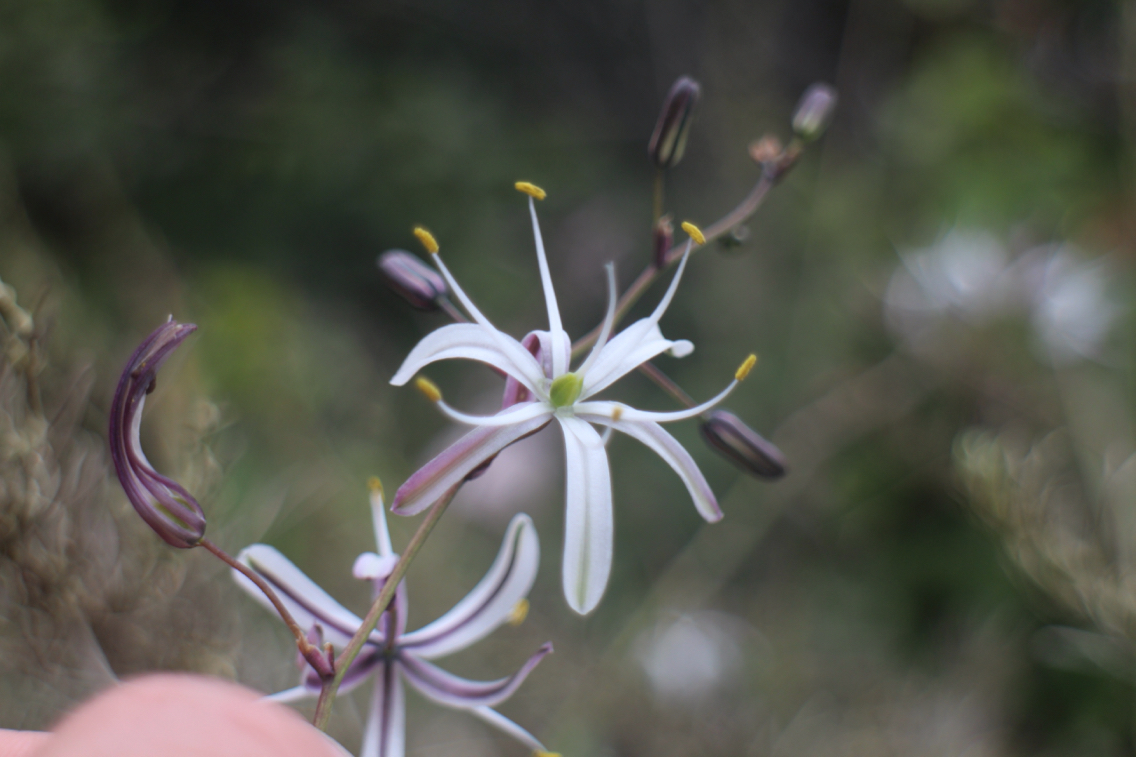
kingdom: Plantae
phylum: Tracheophyta
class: Liliopsida
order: Asparagales
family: Asparagaceae
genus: Chlorogalum
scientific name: Chlorogalum pomeridianum
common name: Amole
